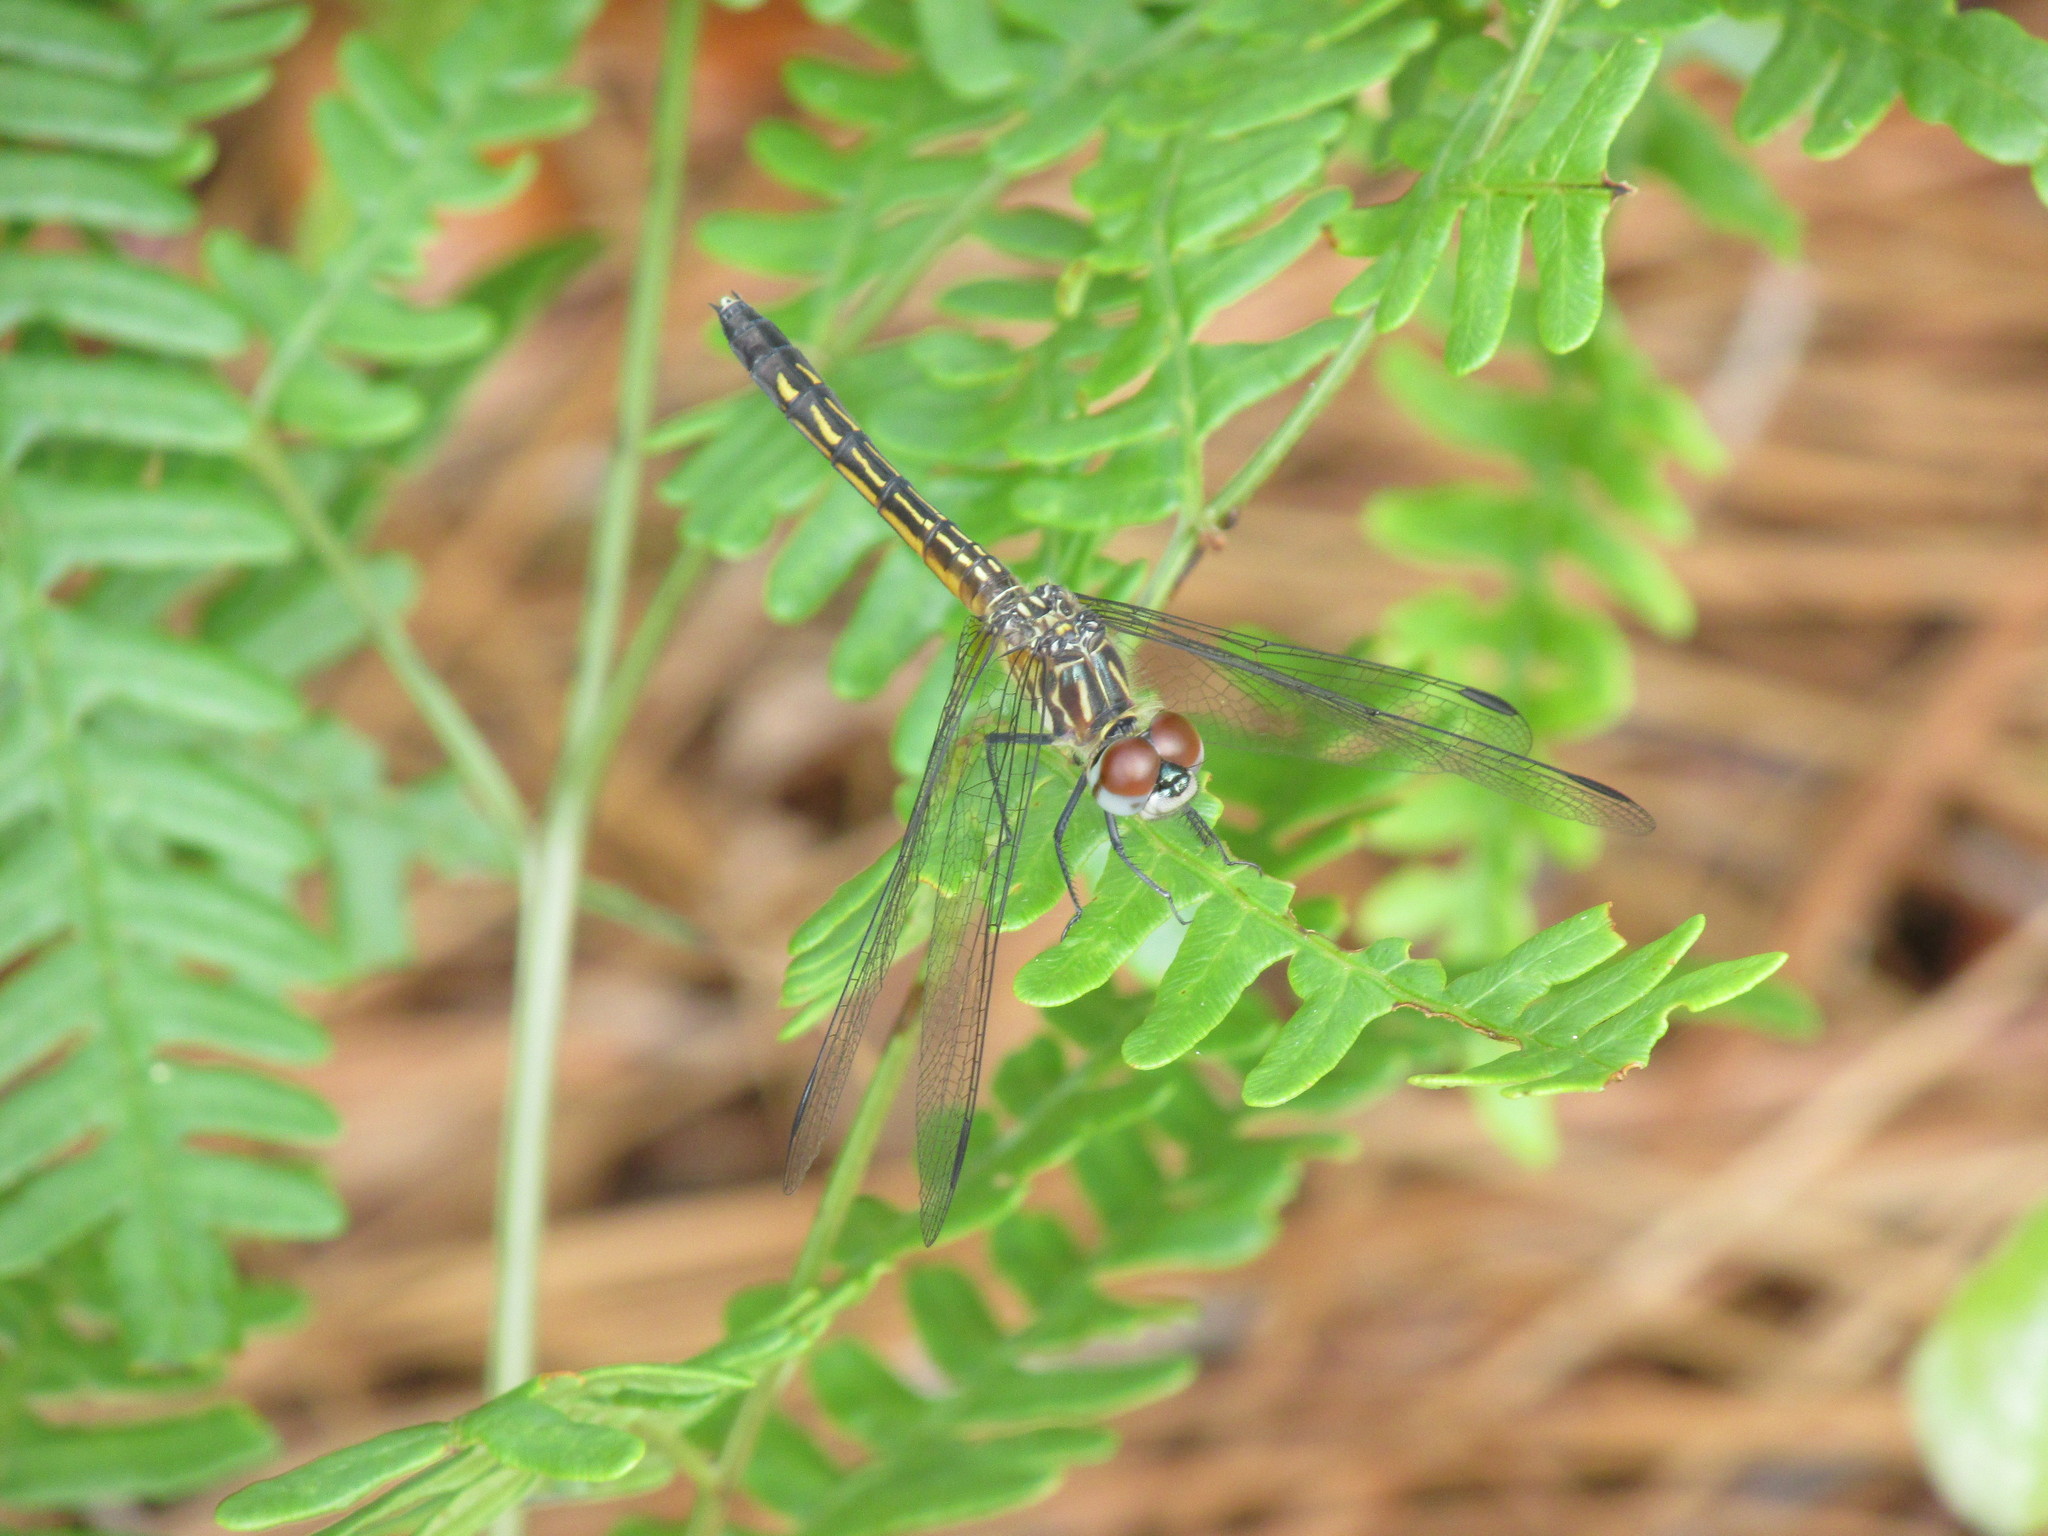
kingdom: Animalia
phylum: Arthropoda
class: Insecta
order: Odonata
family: Libellulidae
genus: Pachydiplax
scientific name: Pachydiplax longipennis
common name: Blue dasher
